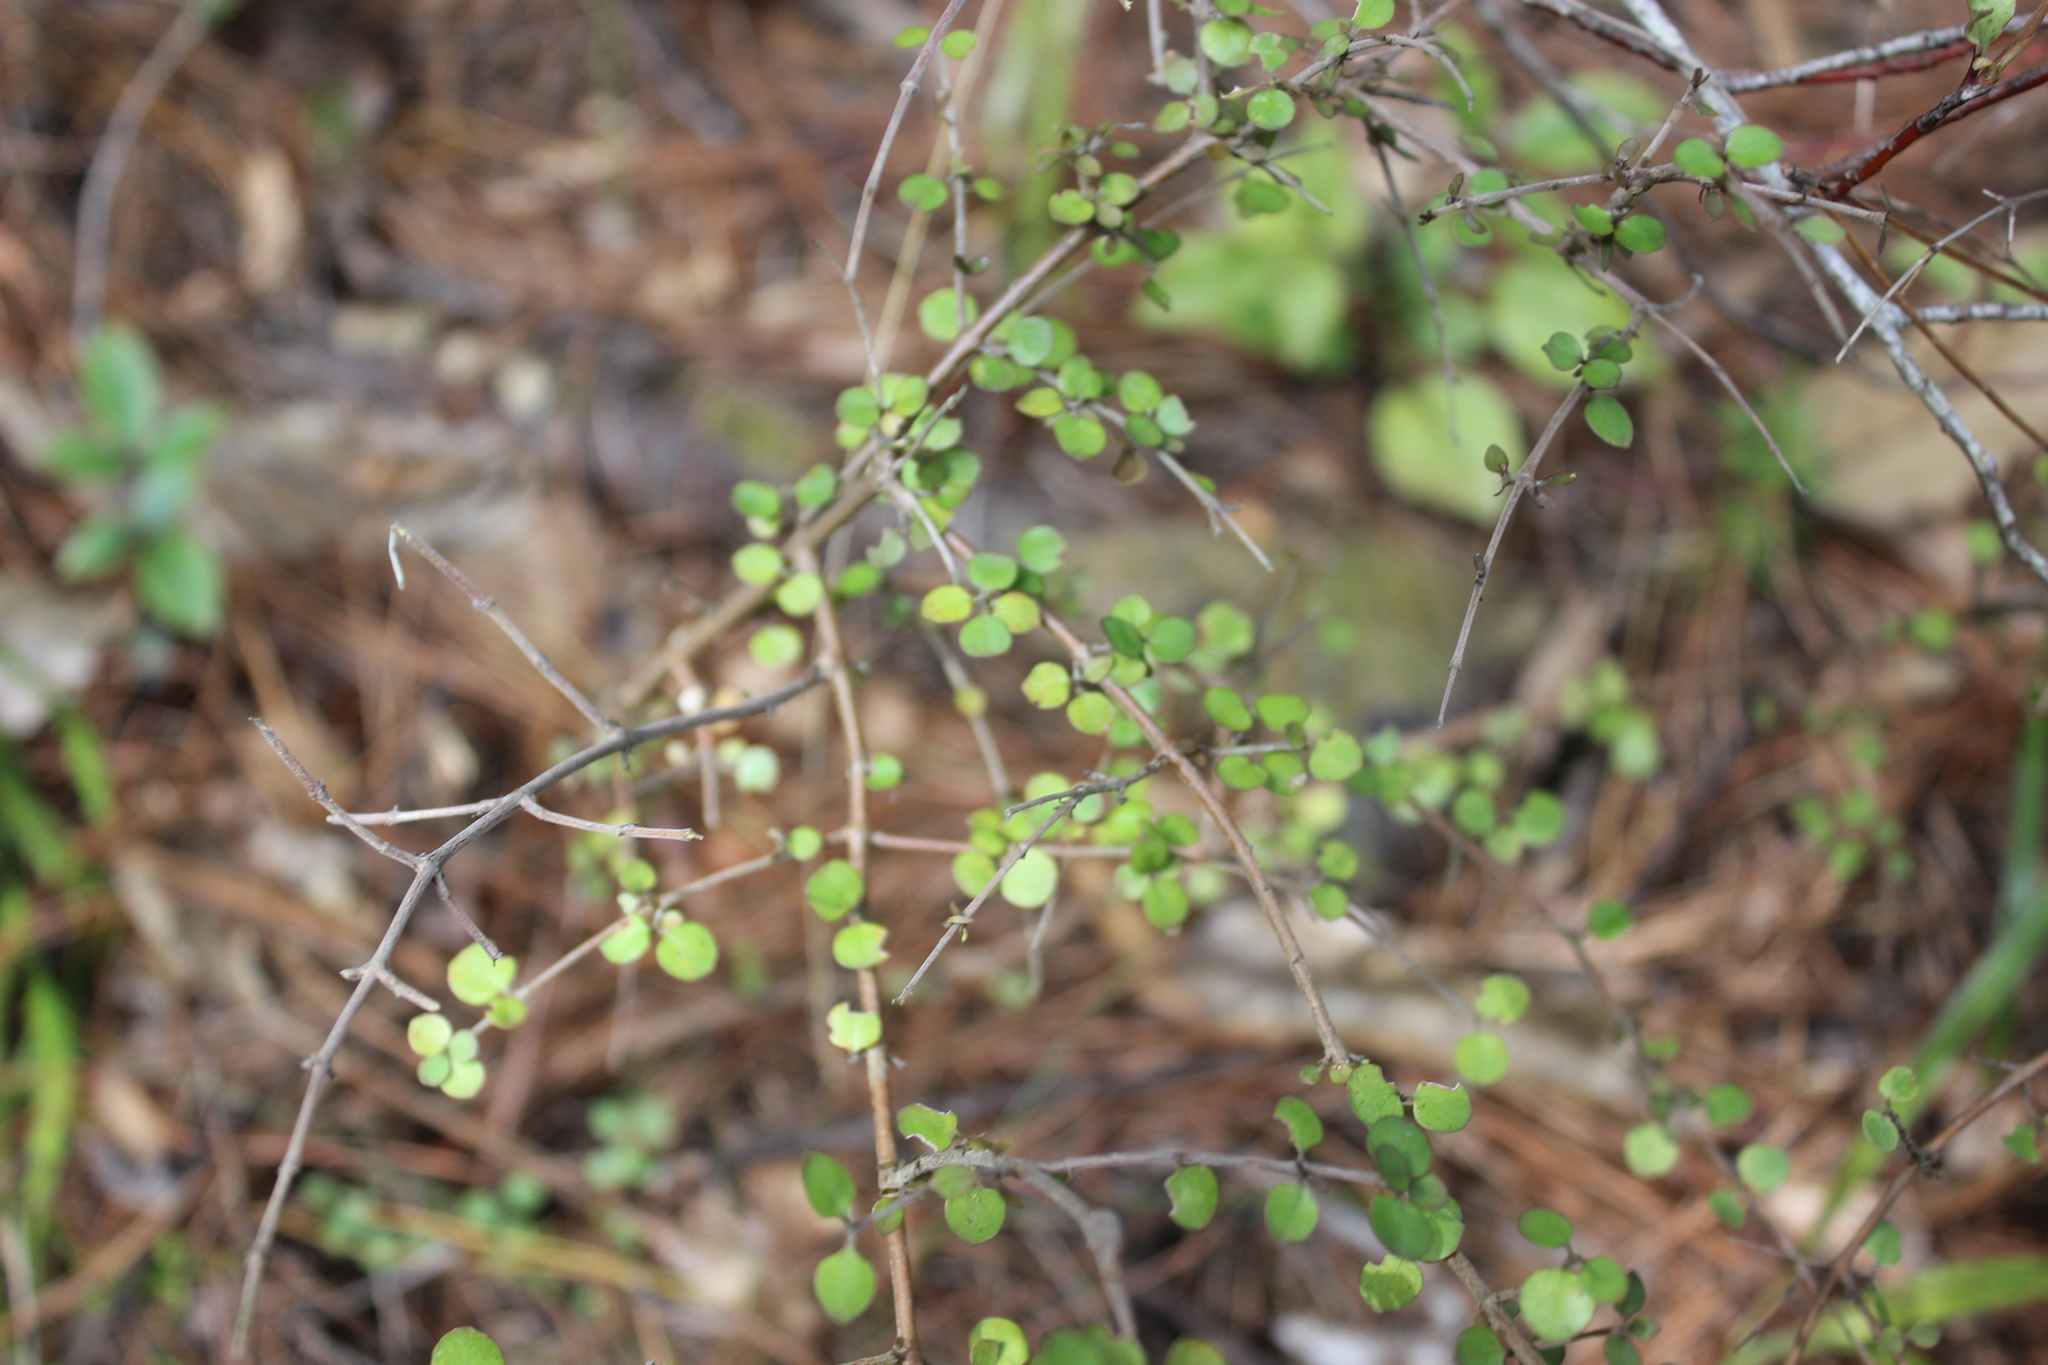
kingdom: Plantae
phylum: Tracheophyta
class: Magnoliopsida
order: Gentianales
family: Rubiaceae
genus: Coprosma
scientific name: Coprosma rhamnoides
